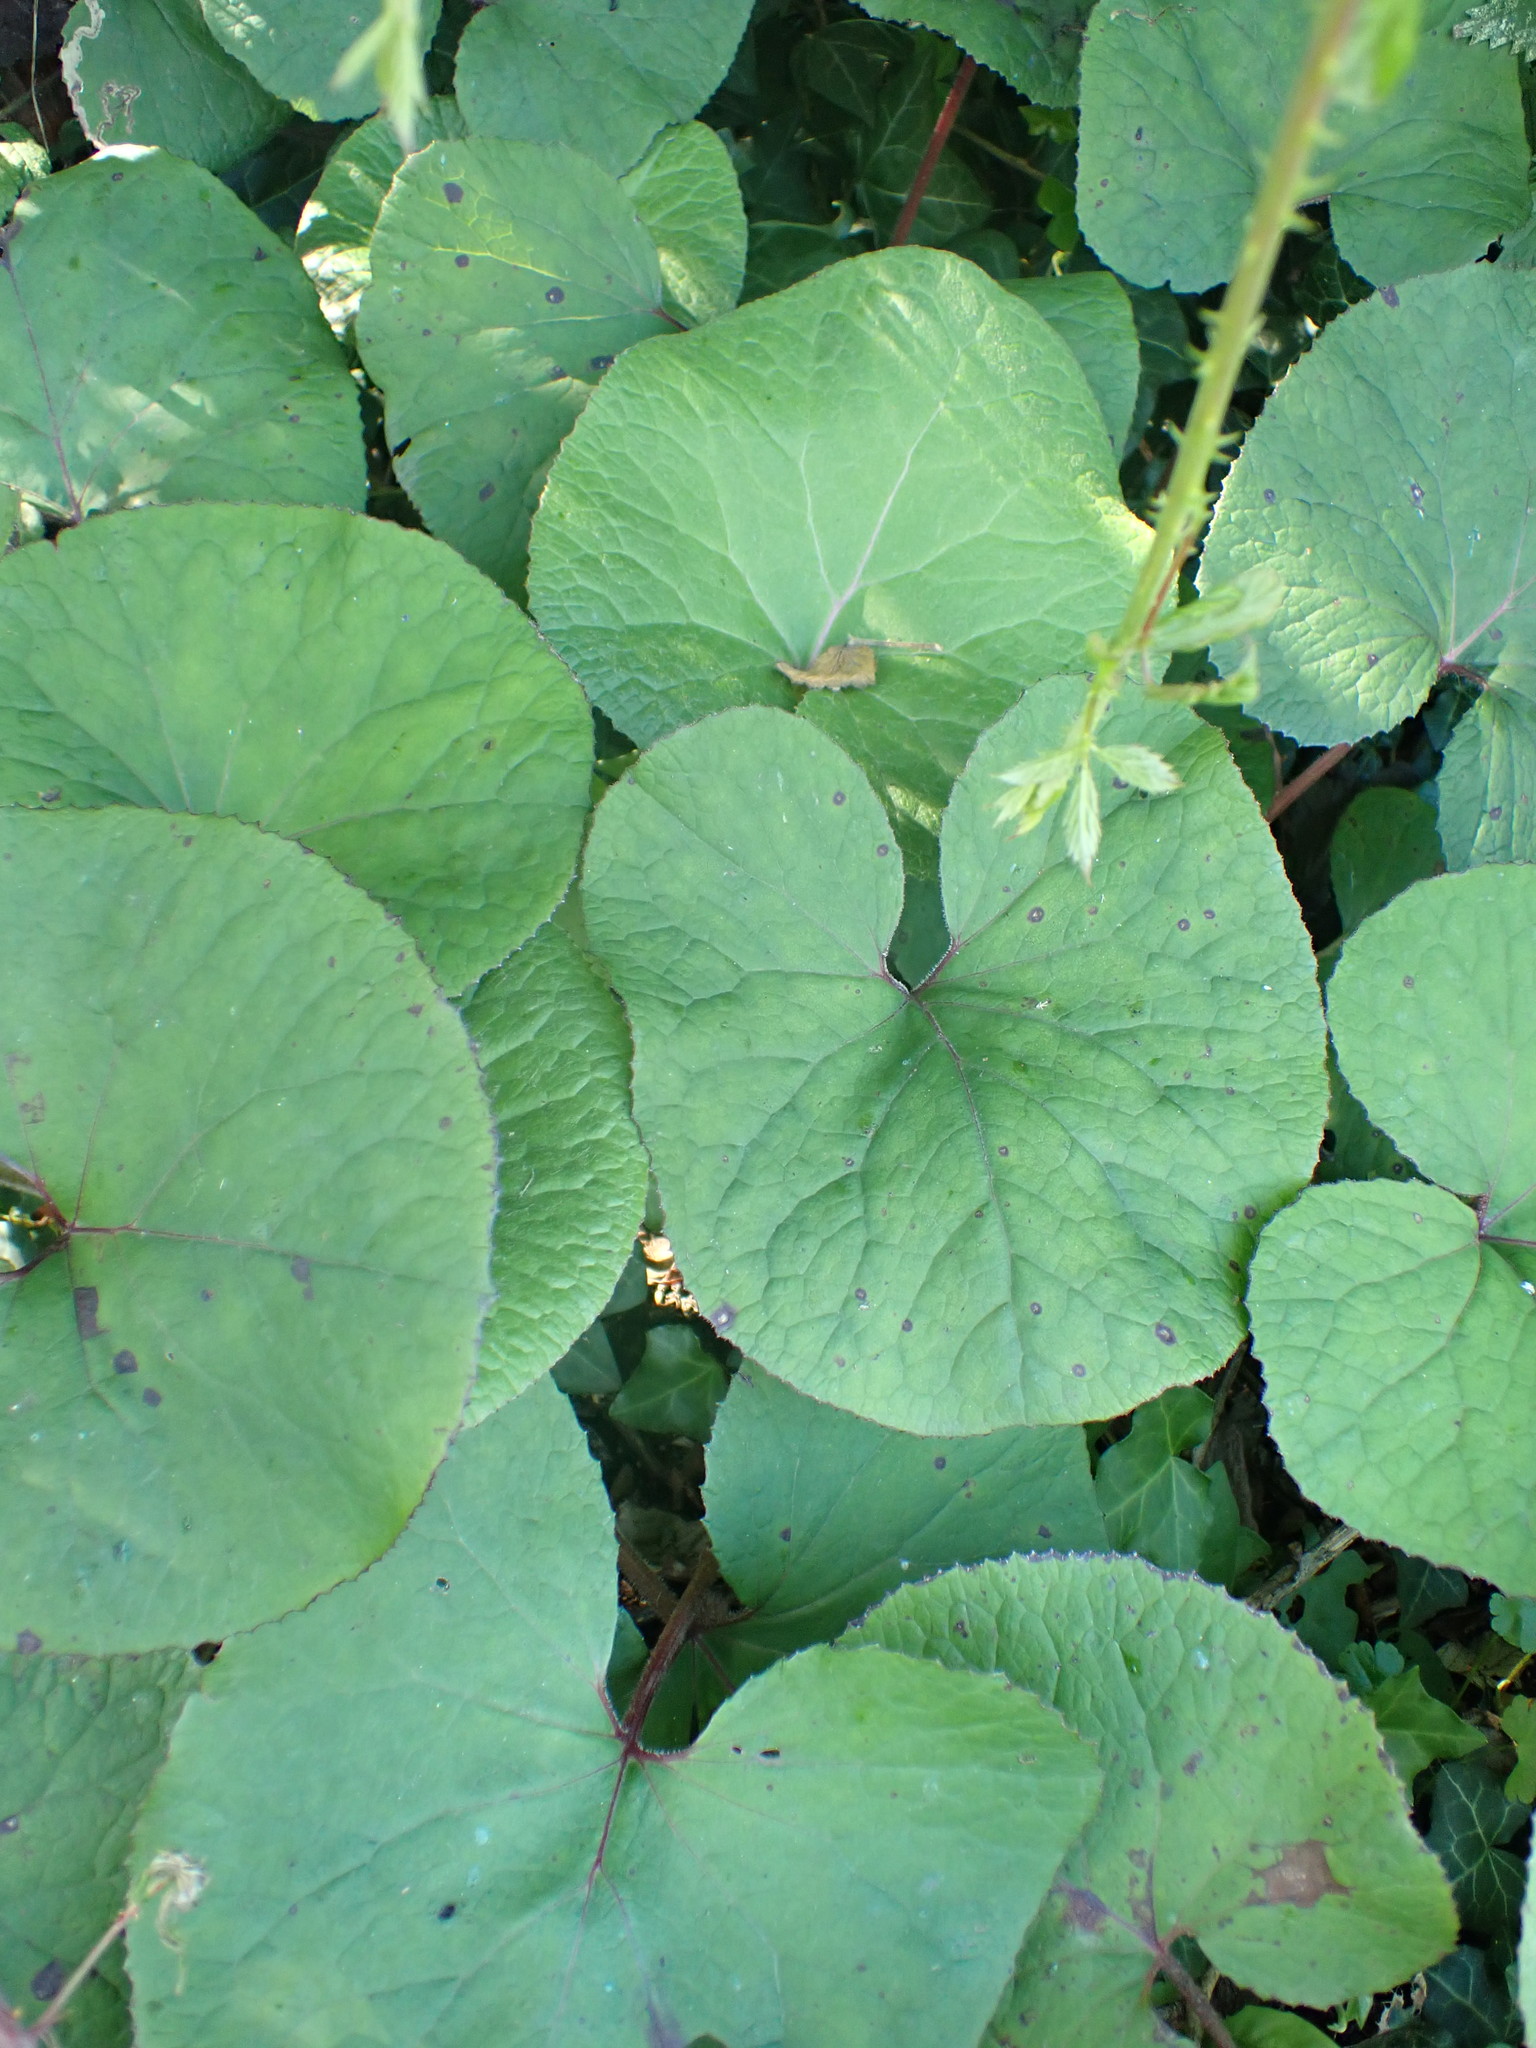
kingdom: Plantae
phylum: Tracheophyta
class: Magnoliopsida
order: Asterales
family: Asteraceae
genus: Petasites
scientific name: Petasites pyrenaicus
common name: Winter heliotrope
